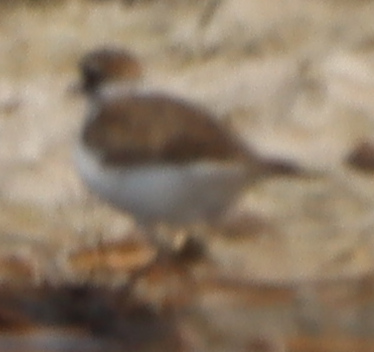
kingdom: Animalia
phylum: Chordata
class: Aves
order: Charadriiformes
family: Charadriidae
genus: Charadrius
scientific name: Charadrius vociferus
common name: Killdeer
